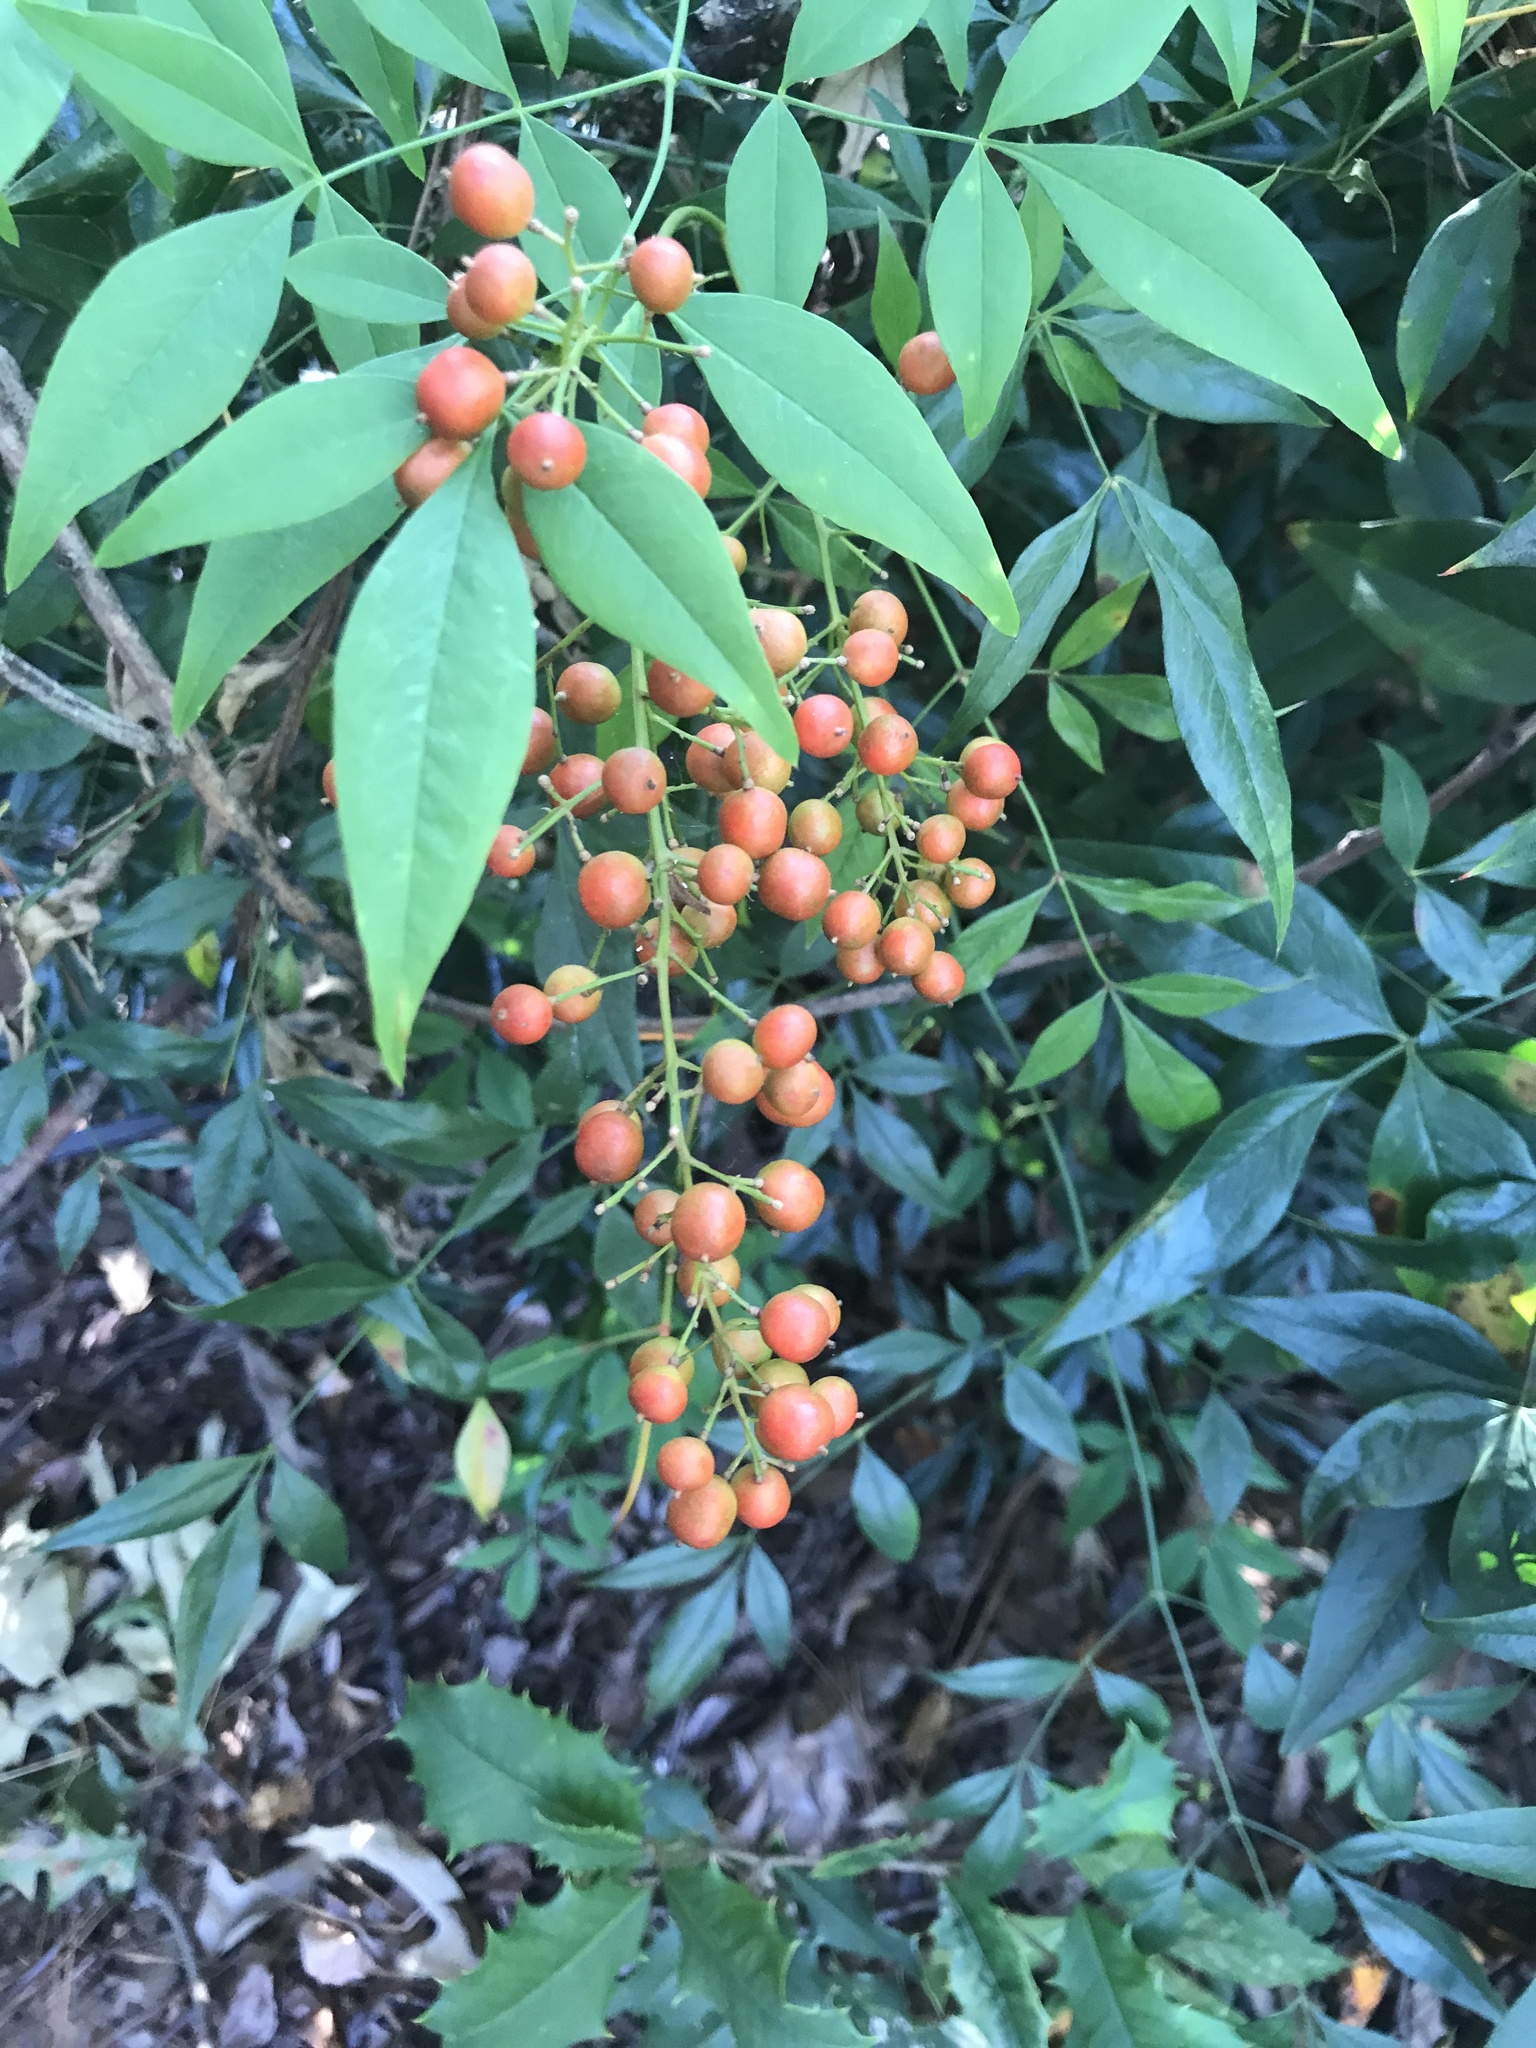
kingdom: Plantae
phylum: Tracheophyta
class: Magnoliopsida
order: Ranunculales
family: Berberidaceae
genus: Nandina
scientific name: Nandina domestica
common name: Sacred bamboo
